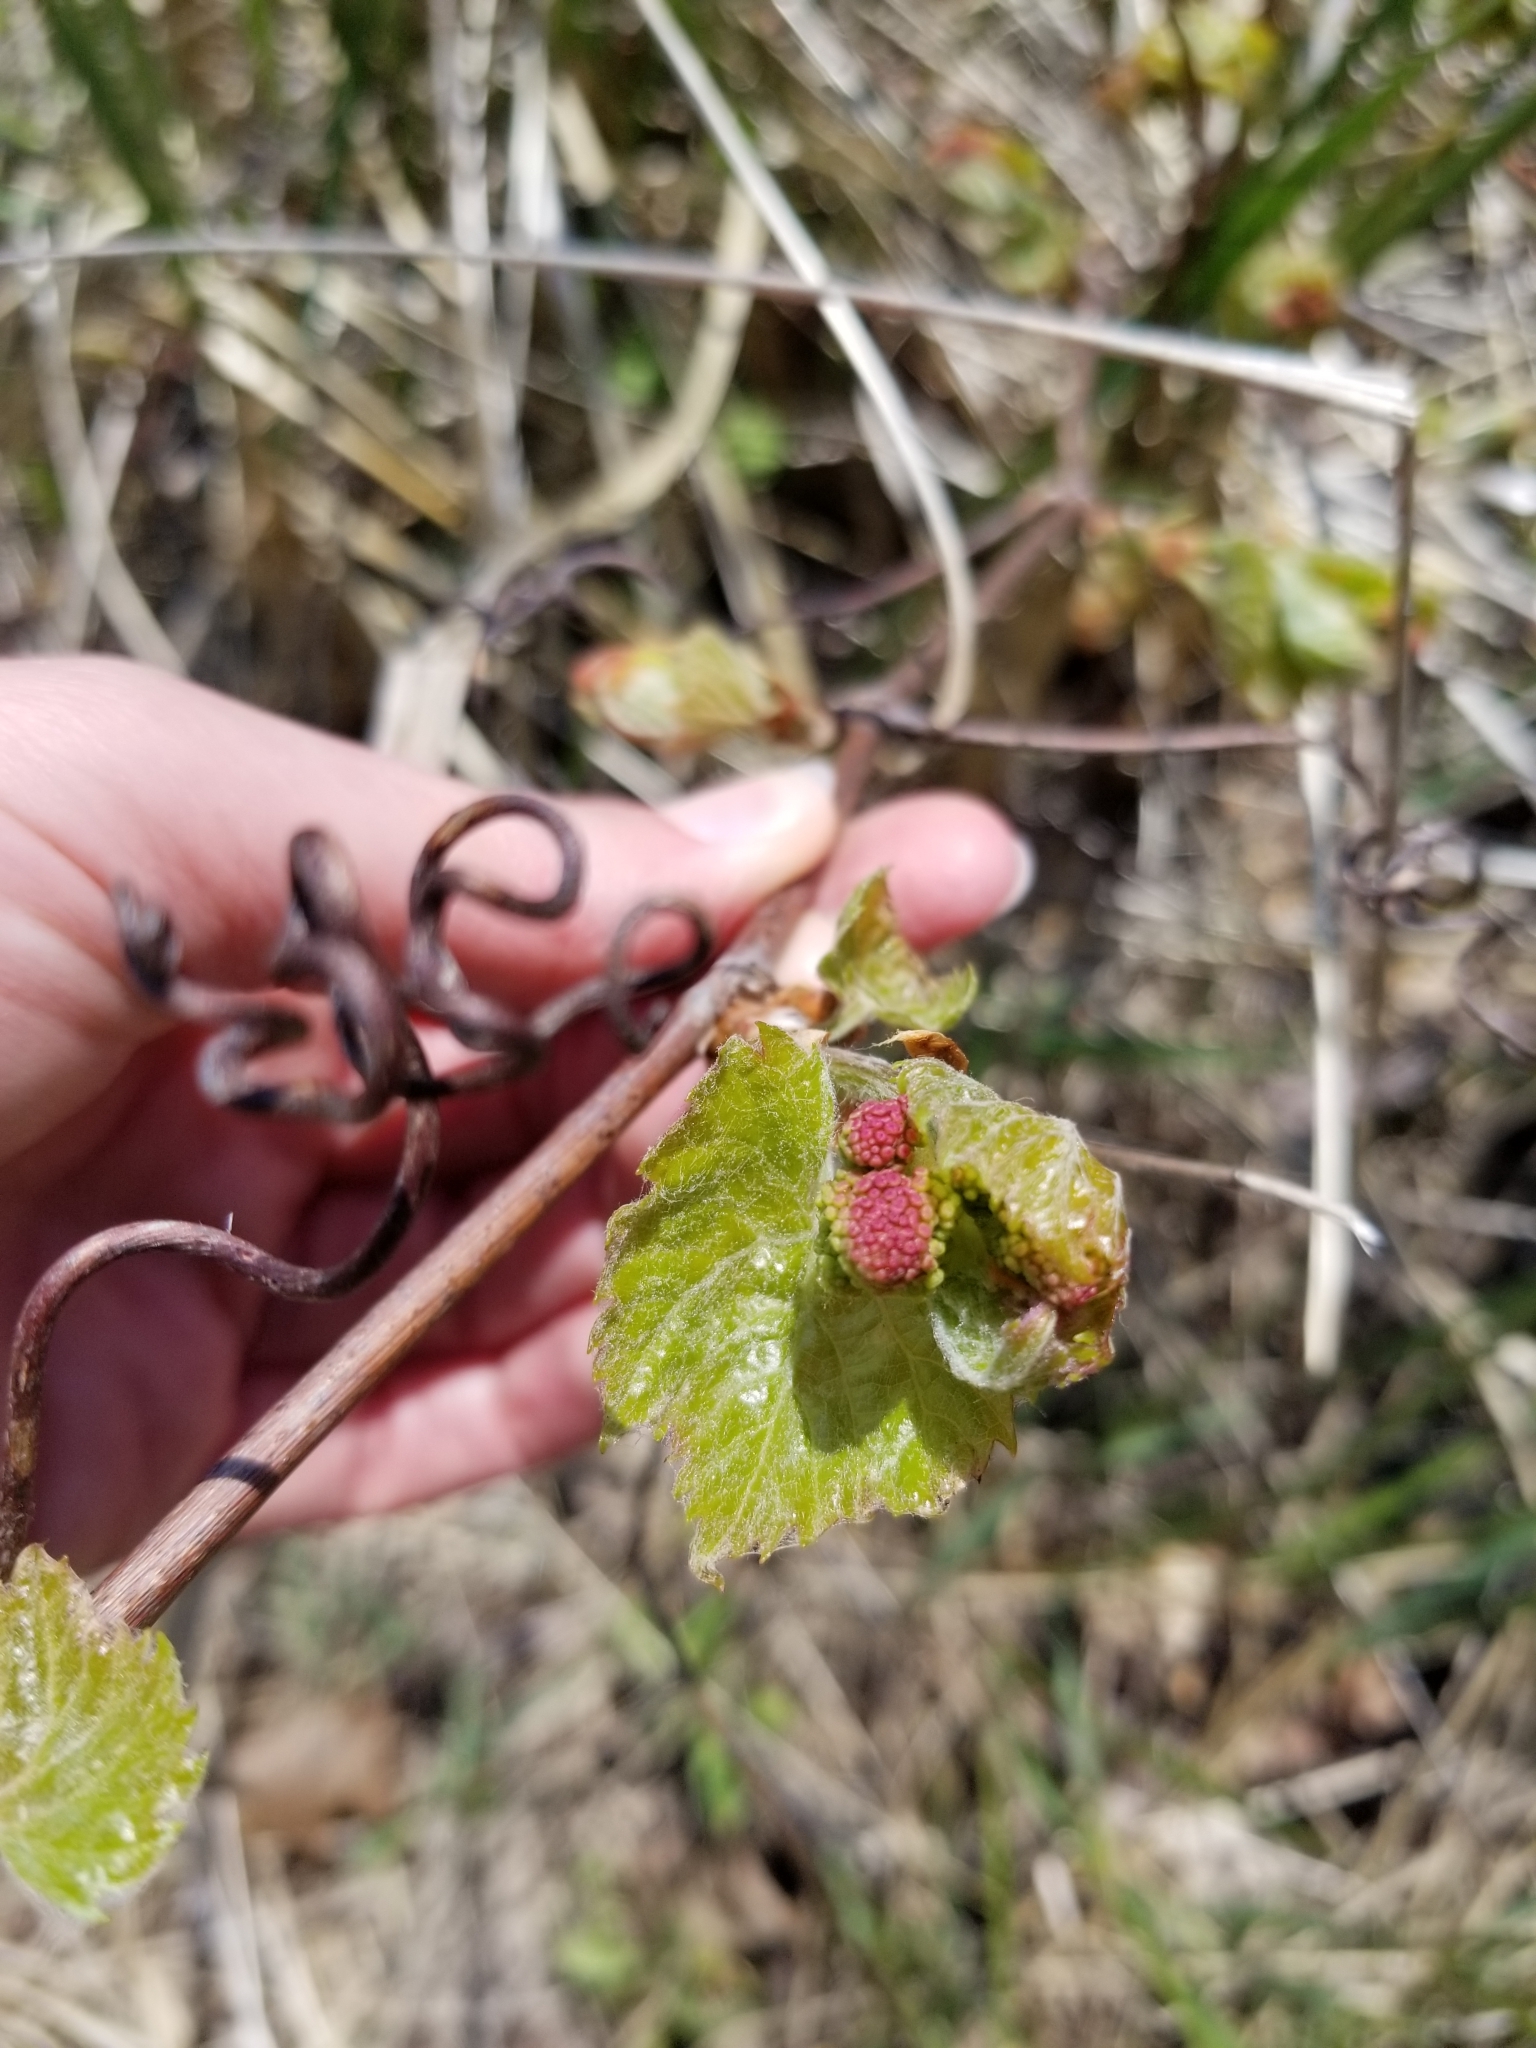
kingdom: Plantae
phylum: Tracheophyta
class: Magnoliopsida
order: Vitales
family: Vitaceae
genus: Vitis
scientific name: Vitis riparia
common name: Frost grape
